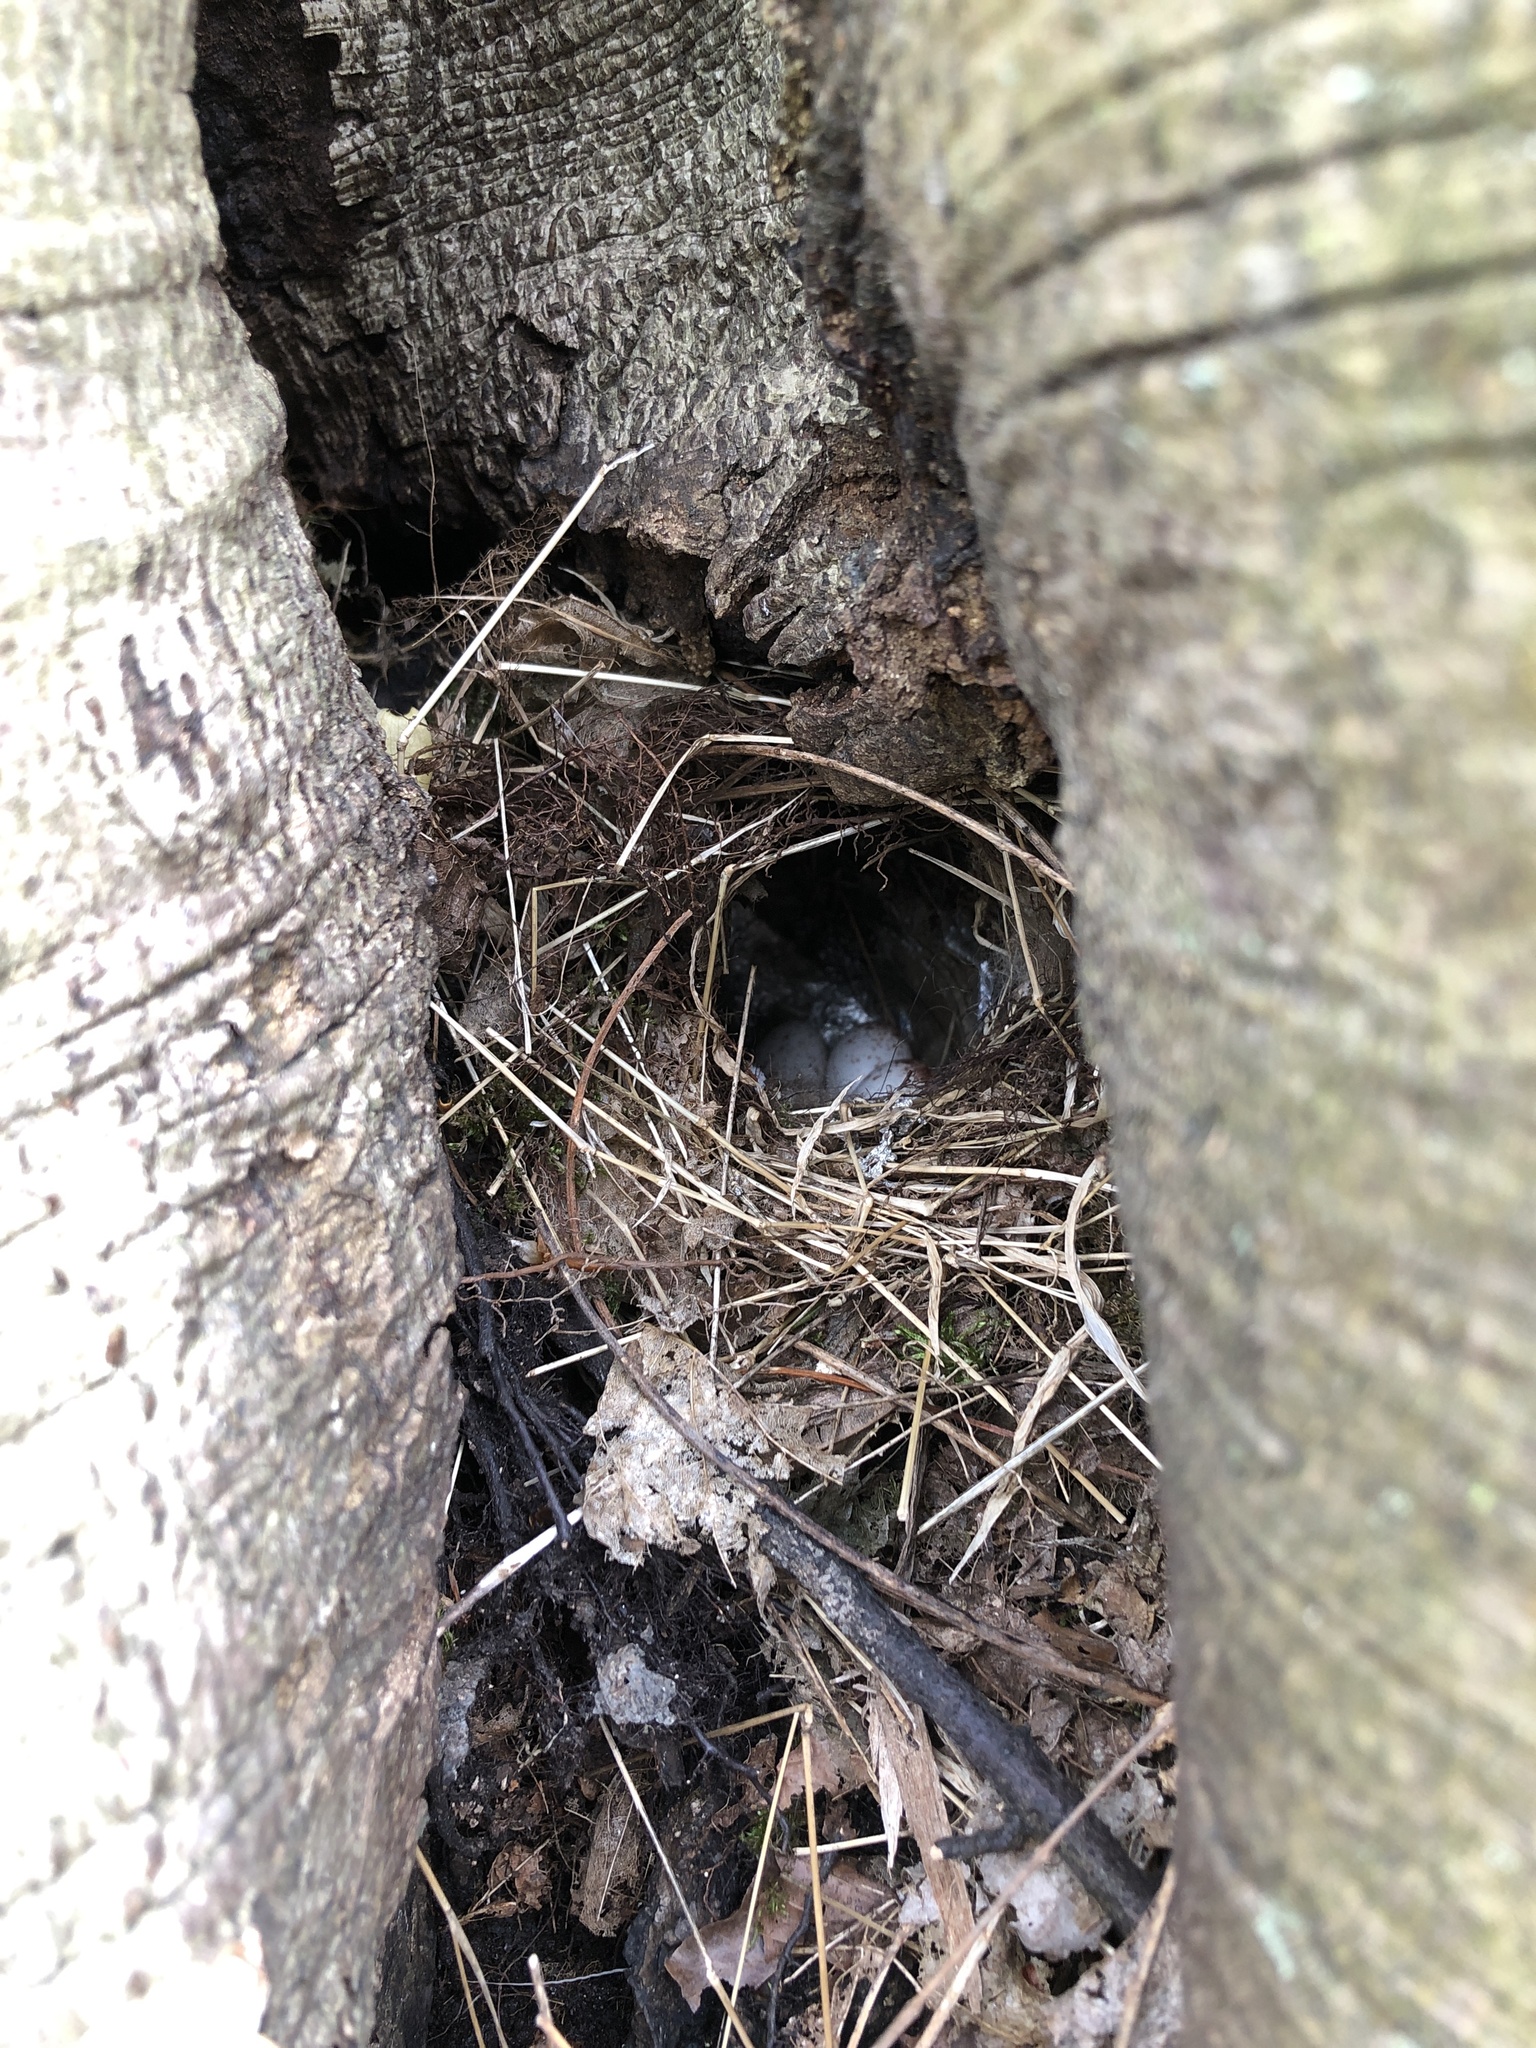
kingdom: Animalia
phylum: Chordata
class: Aves
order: Passeriformes
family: Troglodytidae
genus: Thryothorus
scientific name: Thryothorus ludovicianus
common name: Carolina wren
